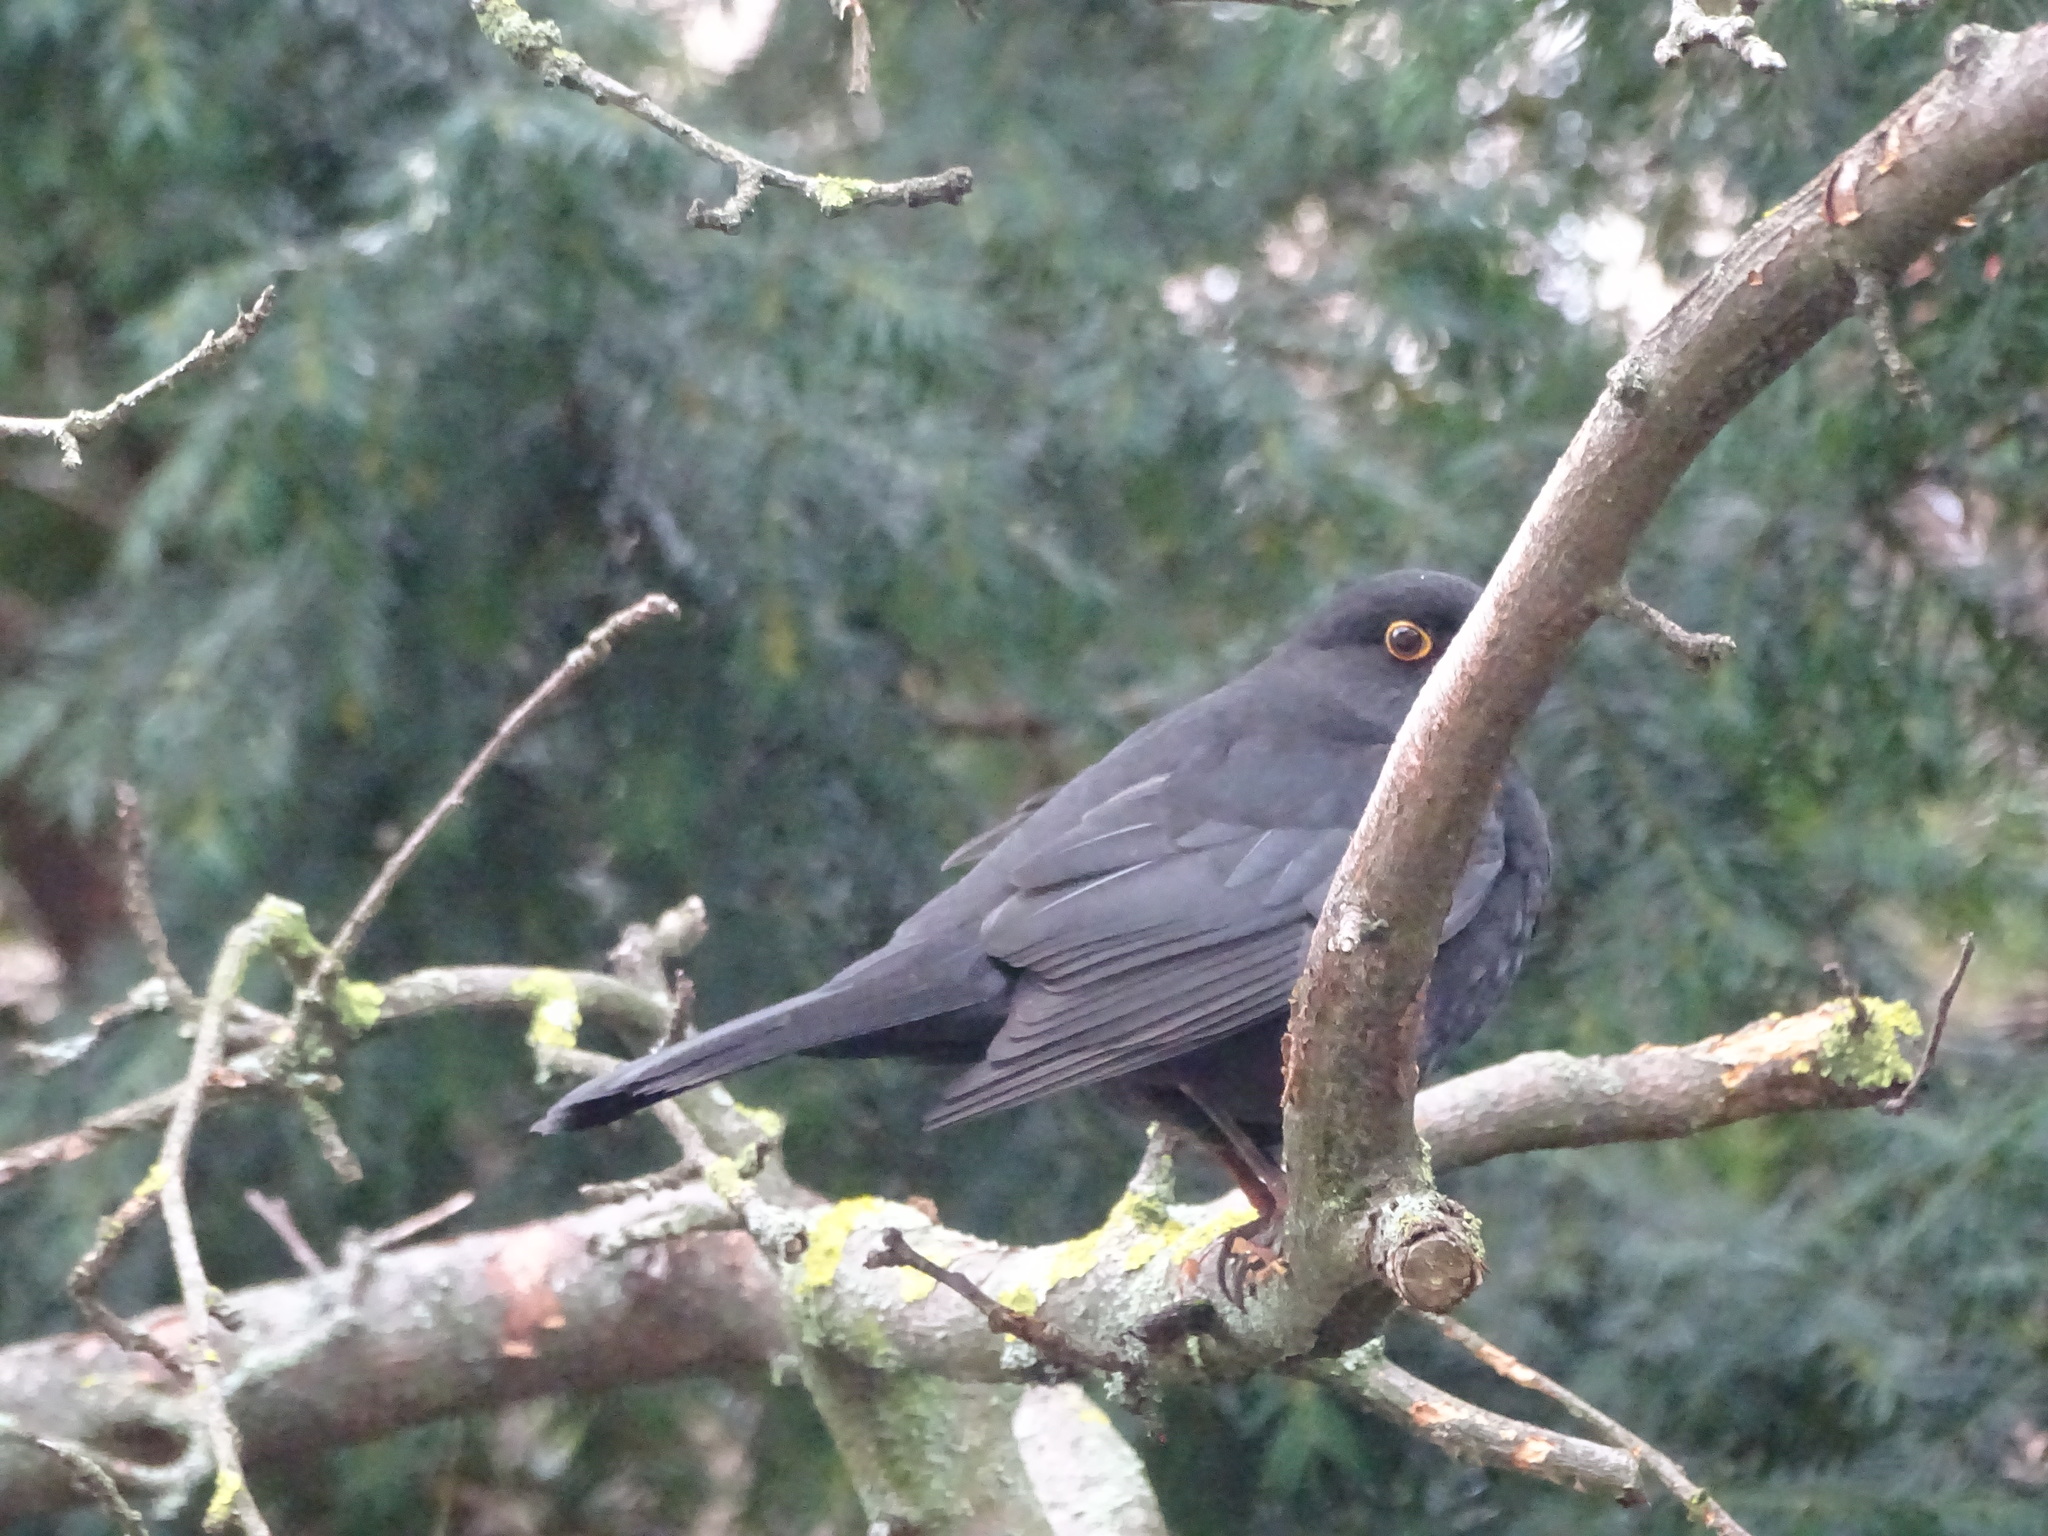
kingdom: Animalia
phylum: Chordata
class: Aves
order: Passeriformes
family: Turdidae
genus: Turdus
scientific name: Turdus merula
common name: Common blackbird
